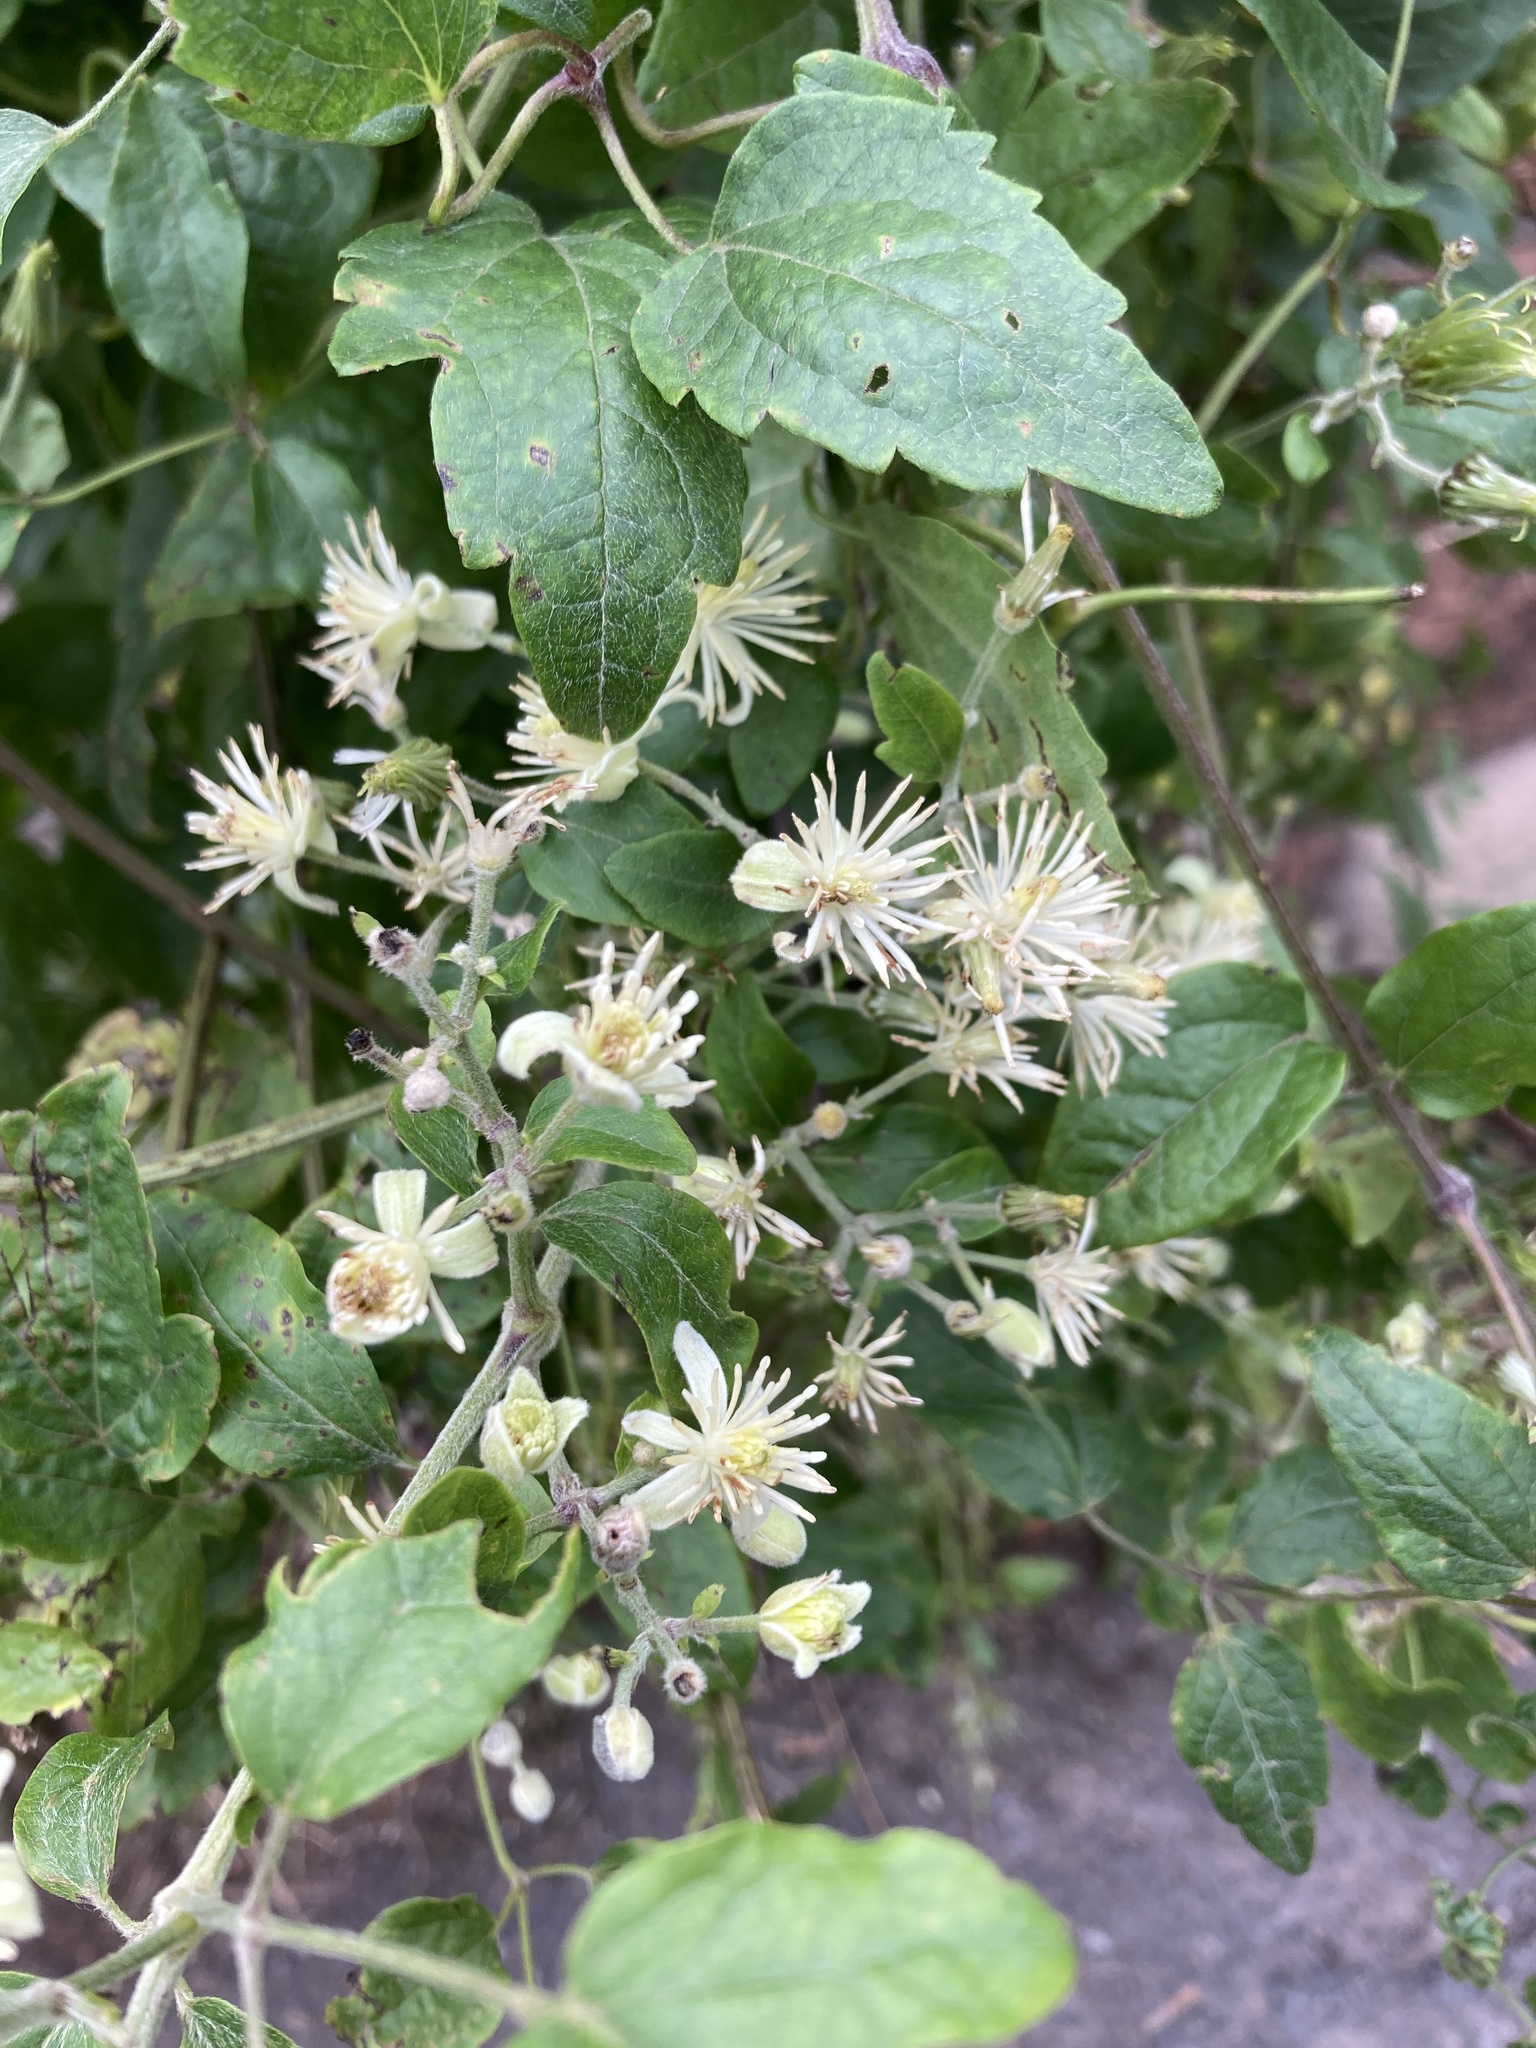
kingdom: Plantae
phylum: Tracheophyta
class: Magnoliopsida
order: Ranunculales
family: Ranunculaceae
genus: Clematis
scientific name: Clematis vitalba
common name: Evergreen clematis
